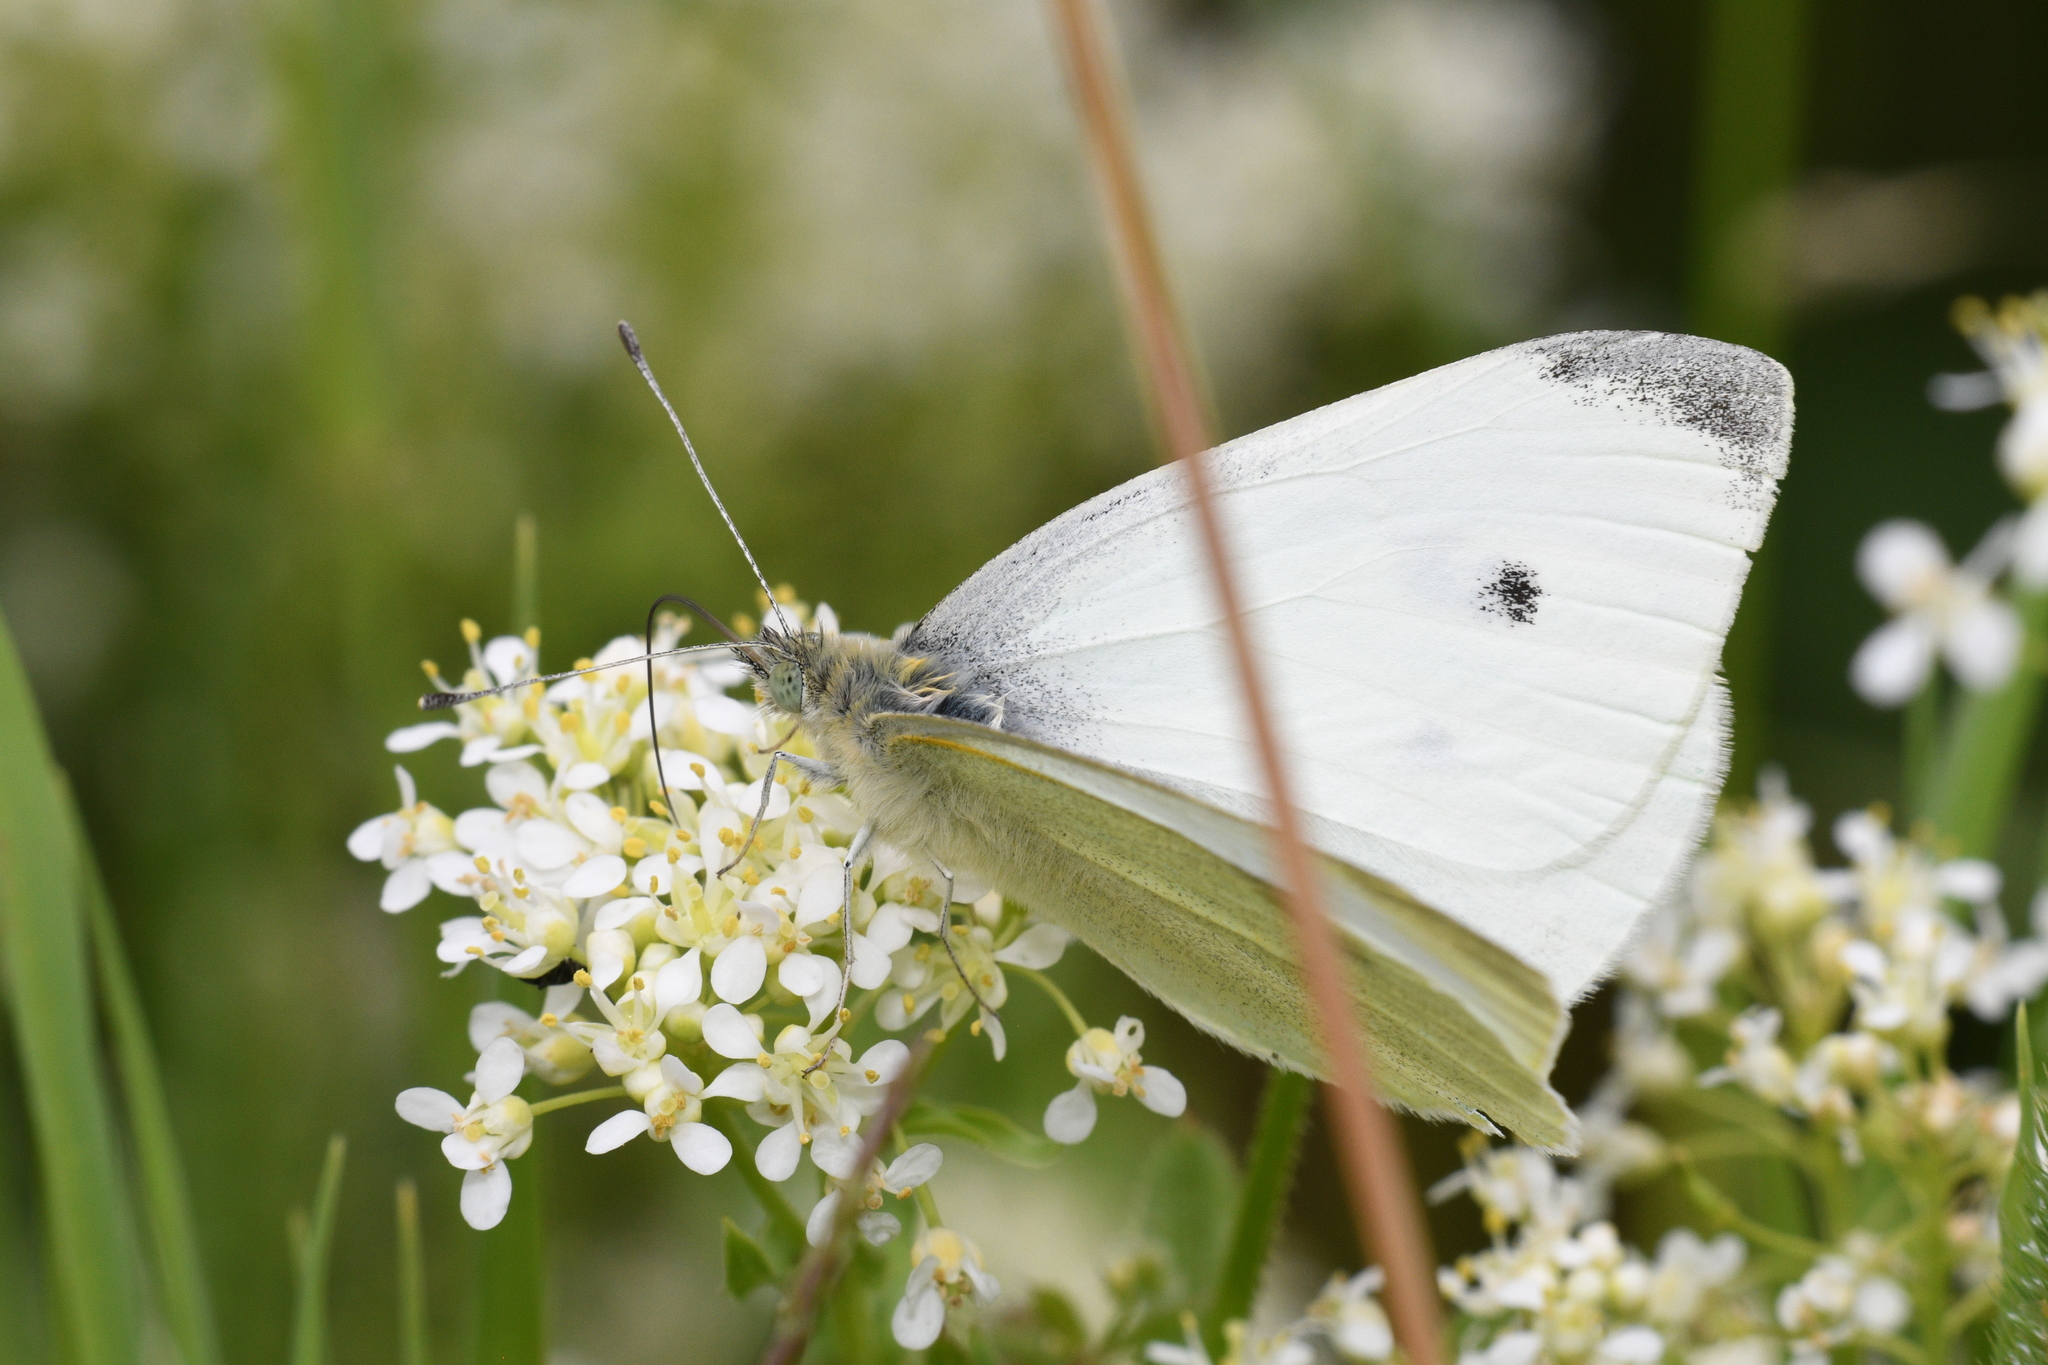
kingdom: Animalia
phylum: Arthropoda
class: Insecta
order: Lepidoptera
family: Pieridae
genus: Pieris
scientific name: Pieris rapae
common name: Small white
